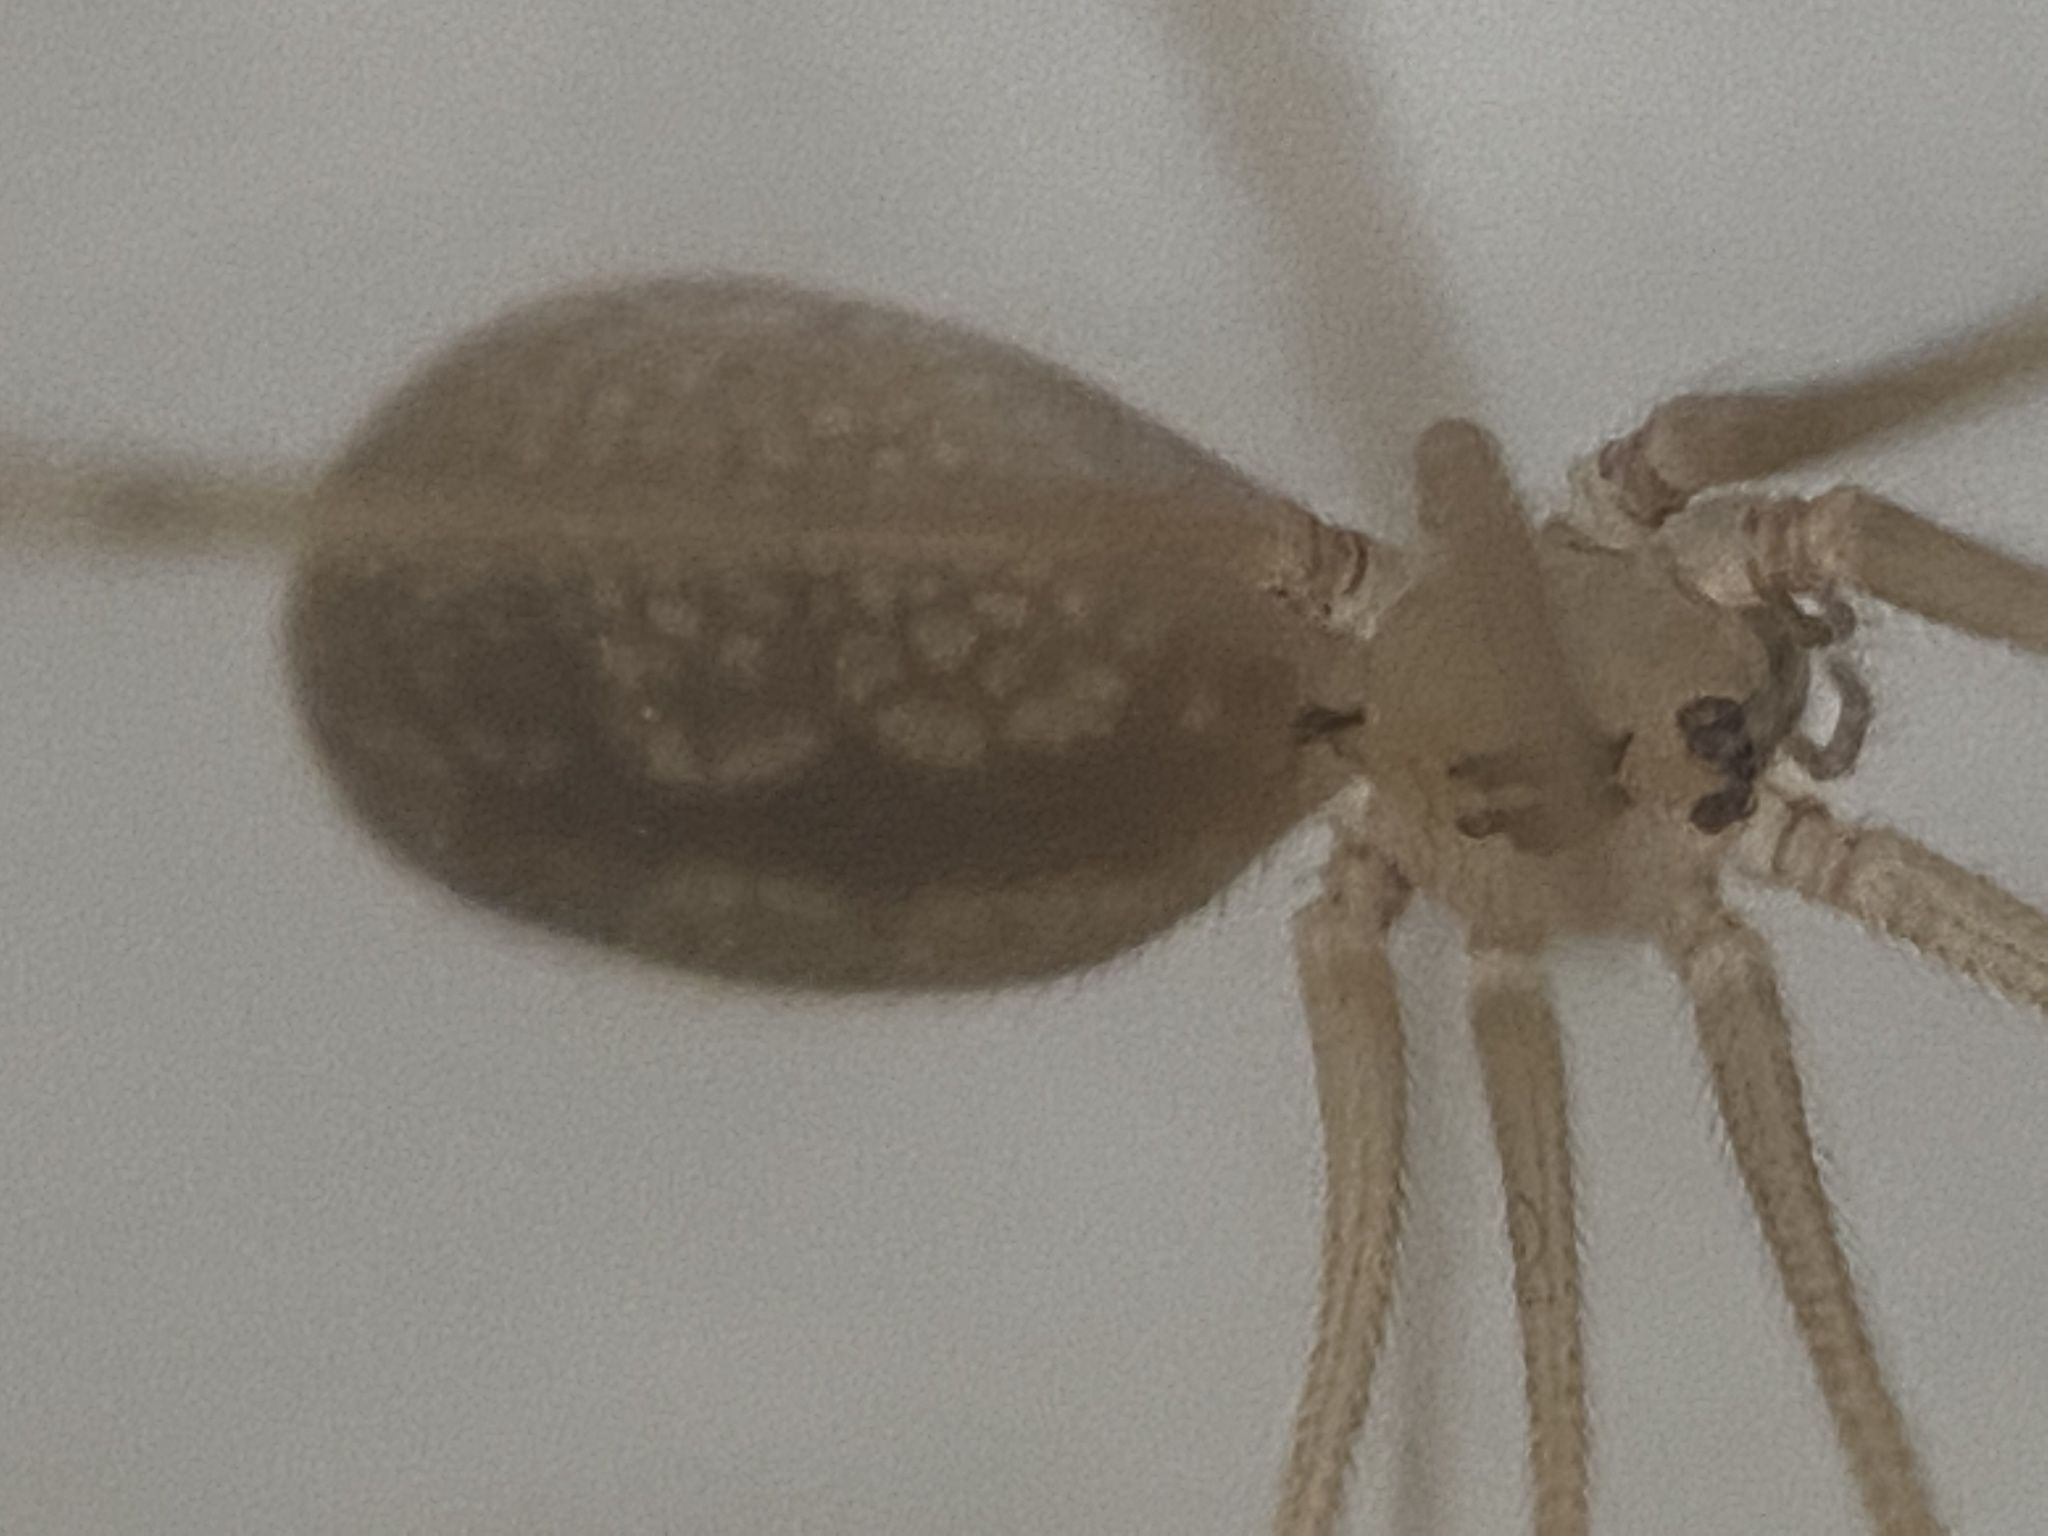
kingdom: Animalia
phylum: Arthropoda
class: Arachnida
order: Araneae
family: Pholcidae
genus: Pholcus
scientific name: Pholcus manueli
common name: Cellar spider
